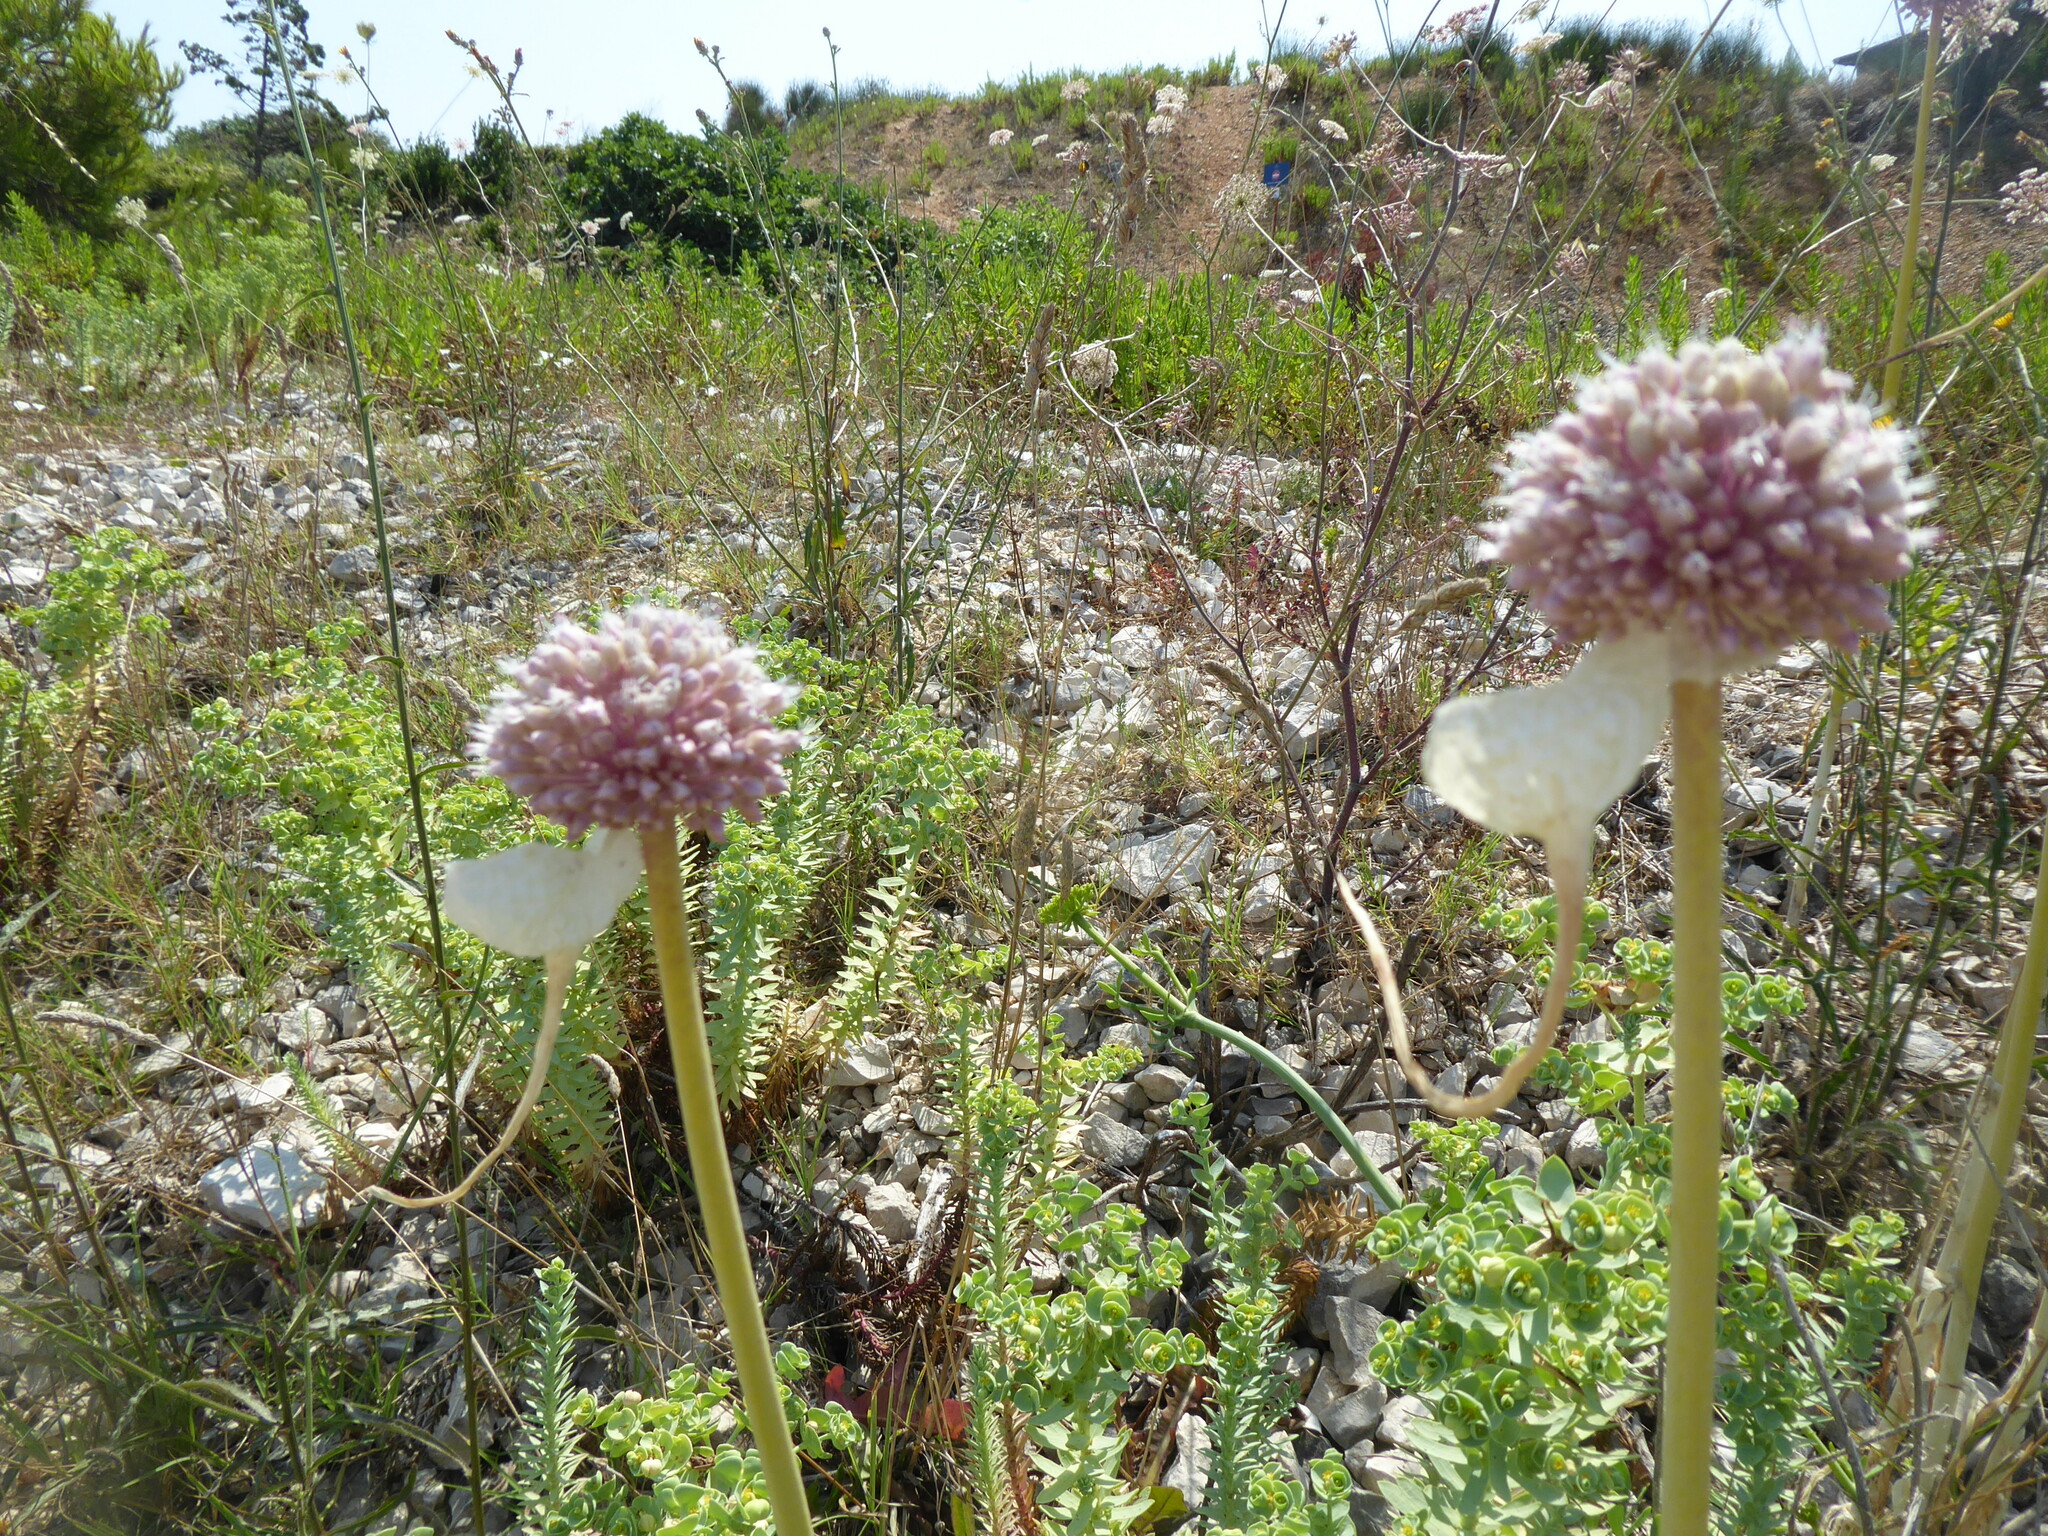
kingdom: Plantae
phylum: Tracheophyta
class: Liliopsida
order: Asparagales
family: Amaryllidaceae
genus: Allium
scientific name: Allium commutatum
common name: Sea garlic
